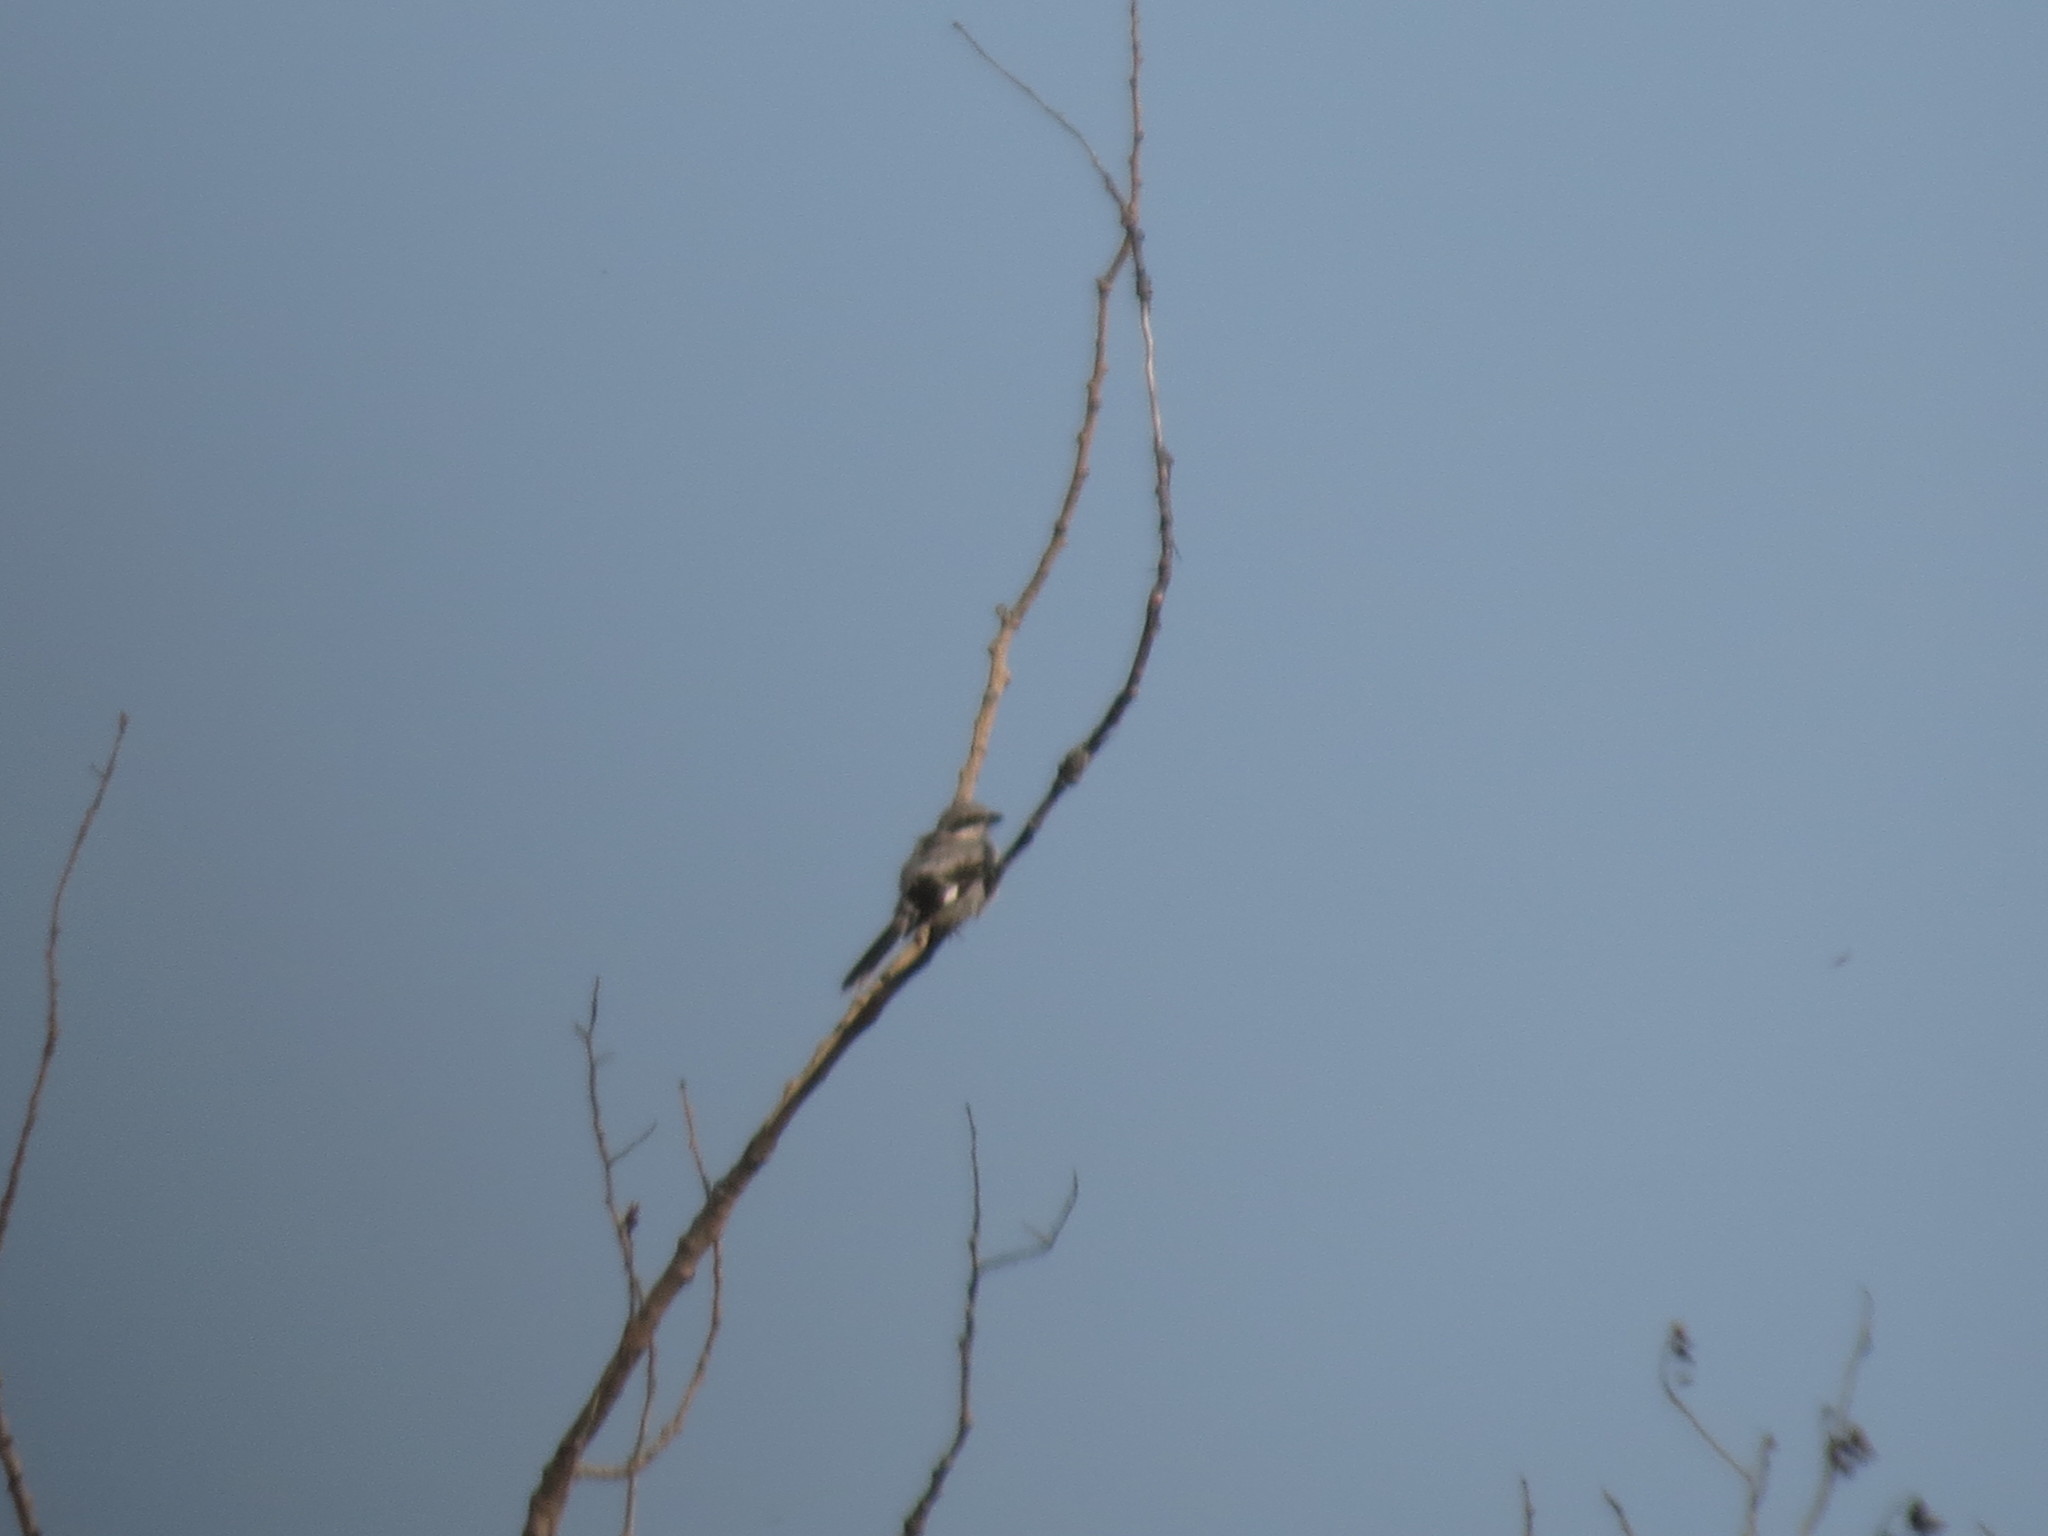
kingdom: Animalia
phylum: Chordata
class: Aves
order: Passeriformes
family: Laniidae
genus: Lanius
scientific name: Lanius ludovicianus
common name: Loggerhead shrike
